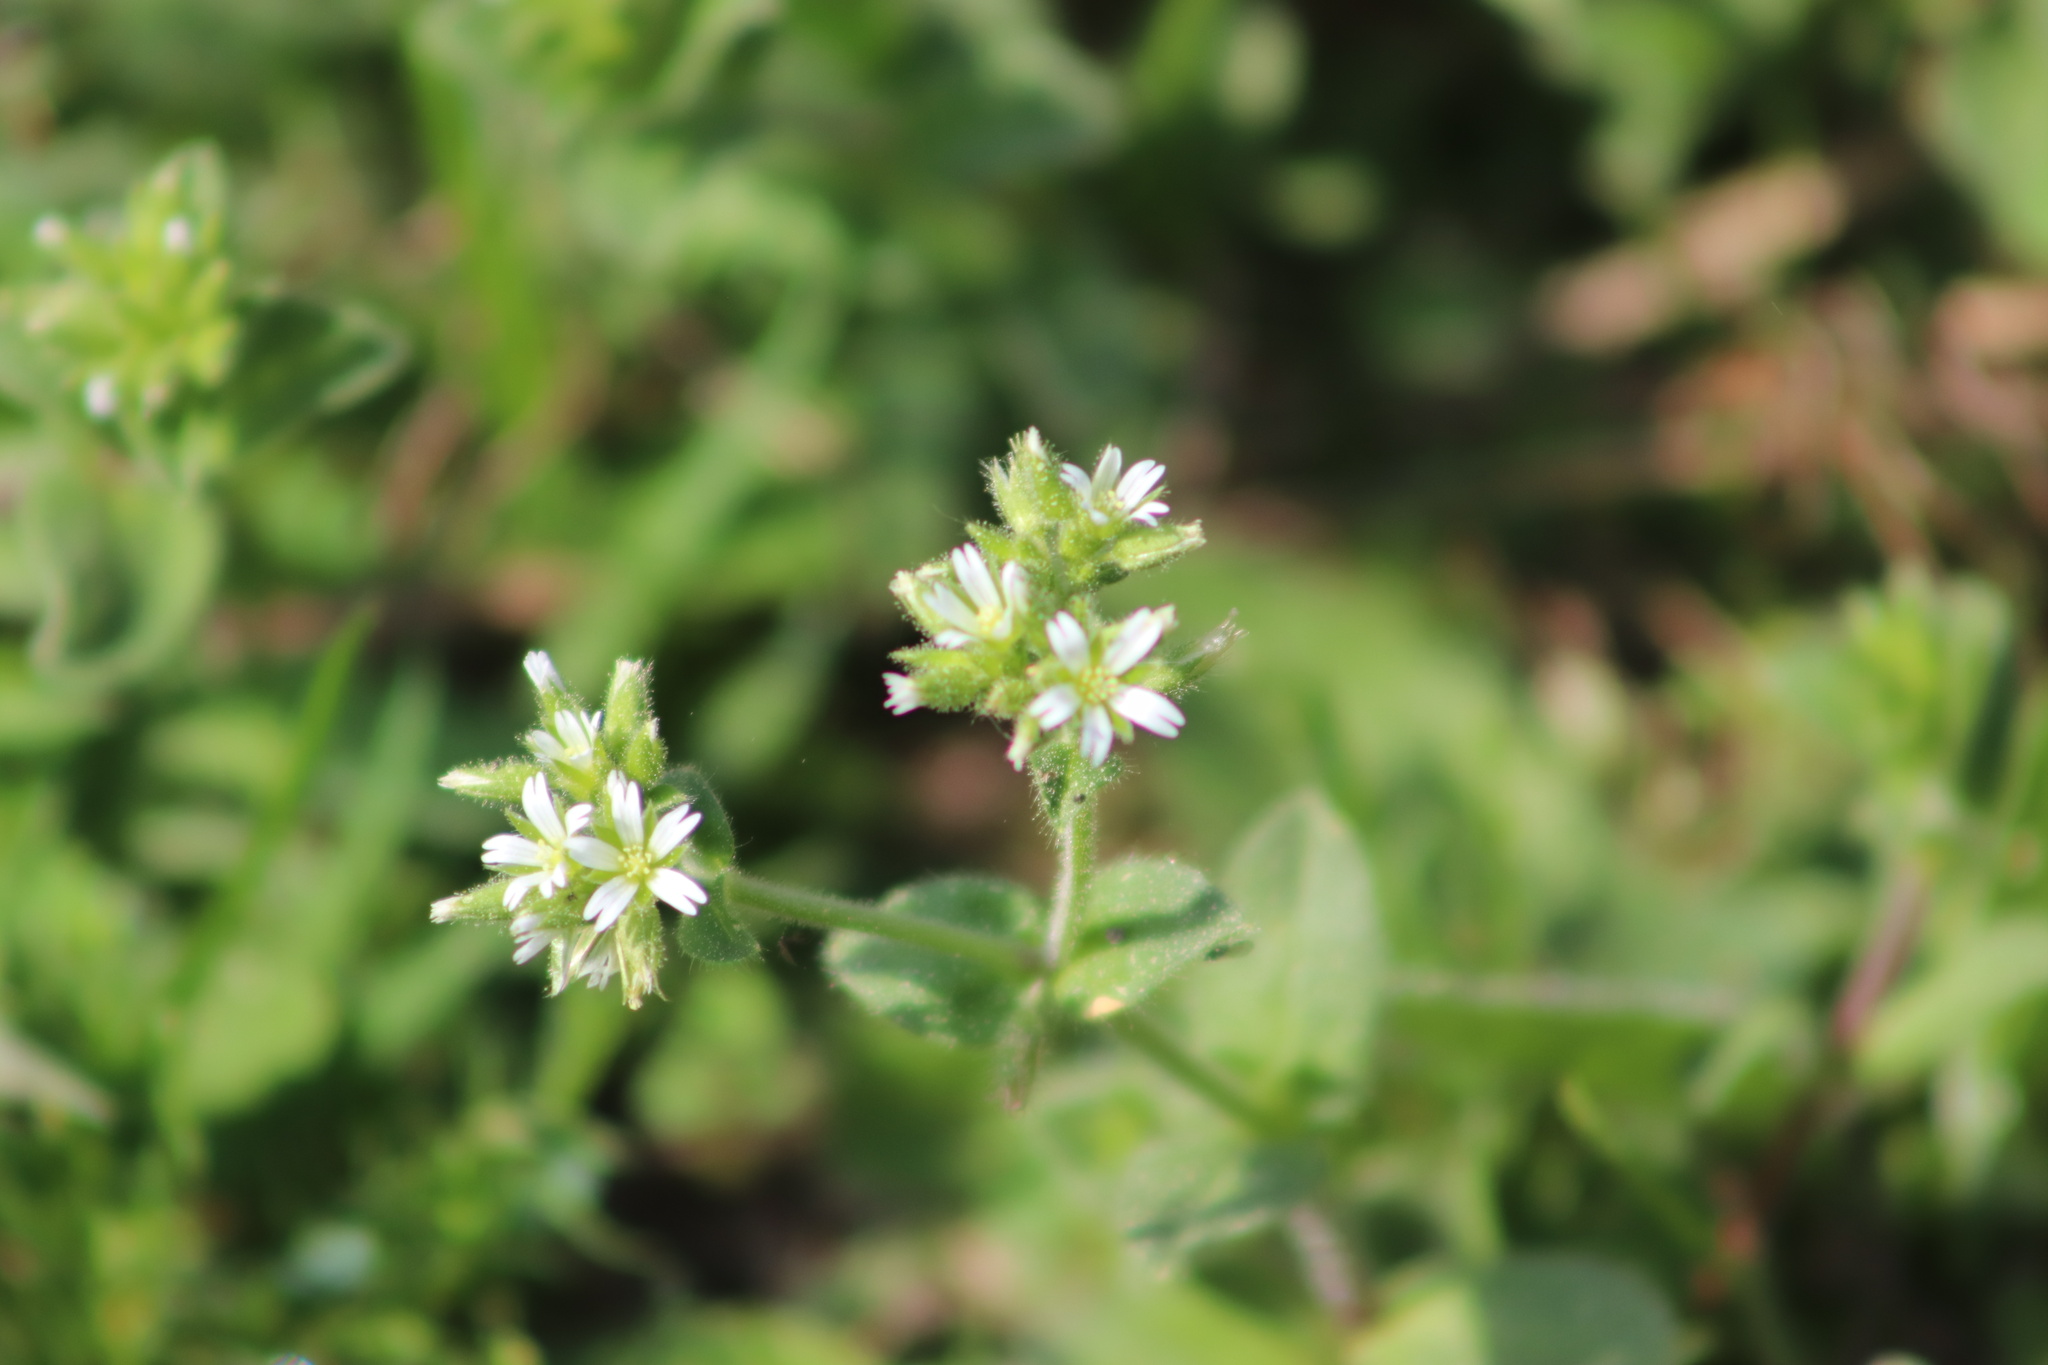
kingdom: Plantae
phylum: Tracheophyta
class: Magnoliopsida
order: Caryophyllales
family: Caryophyllaceae
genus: Cerastium
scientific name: Cerastium glomeratum
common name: Sticky chickweed
